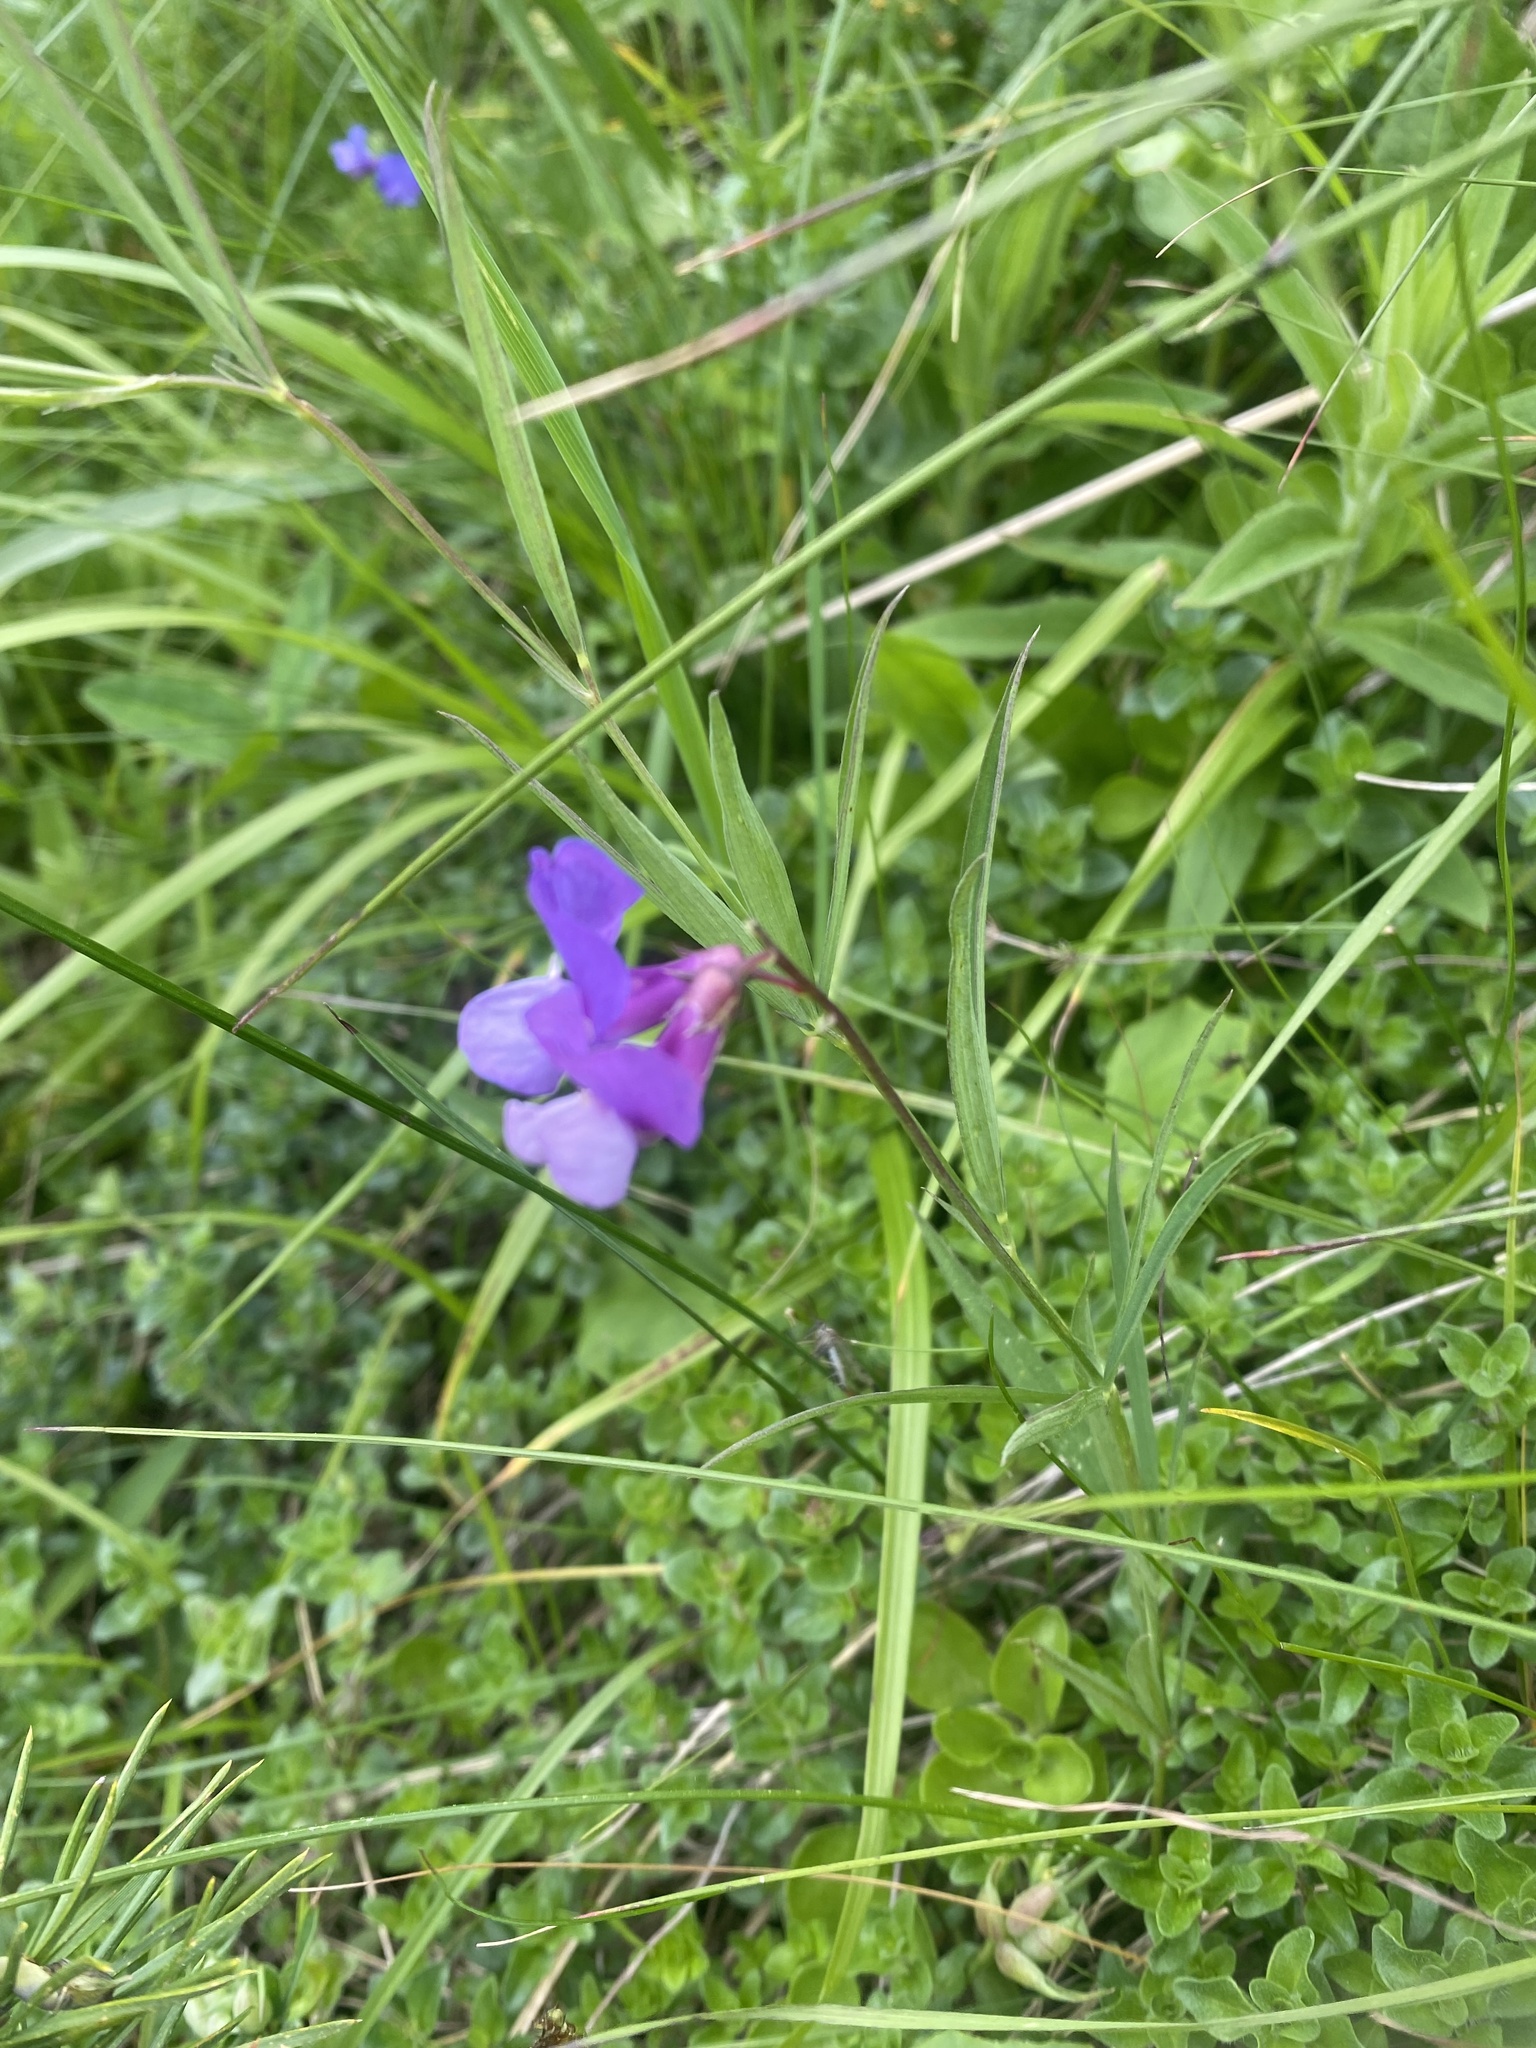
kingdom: Plantae
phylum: Tracheophyta
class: Magnoliopsida
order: Fabales
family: Fabaceae
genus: Lathyrus
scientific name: Lathyrus cyaneus
